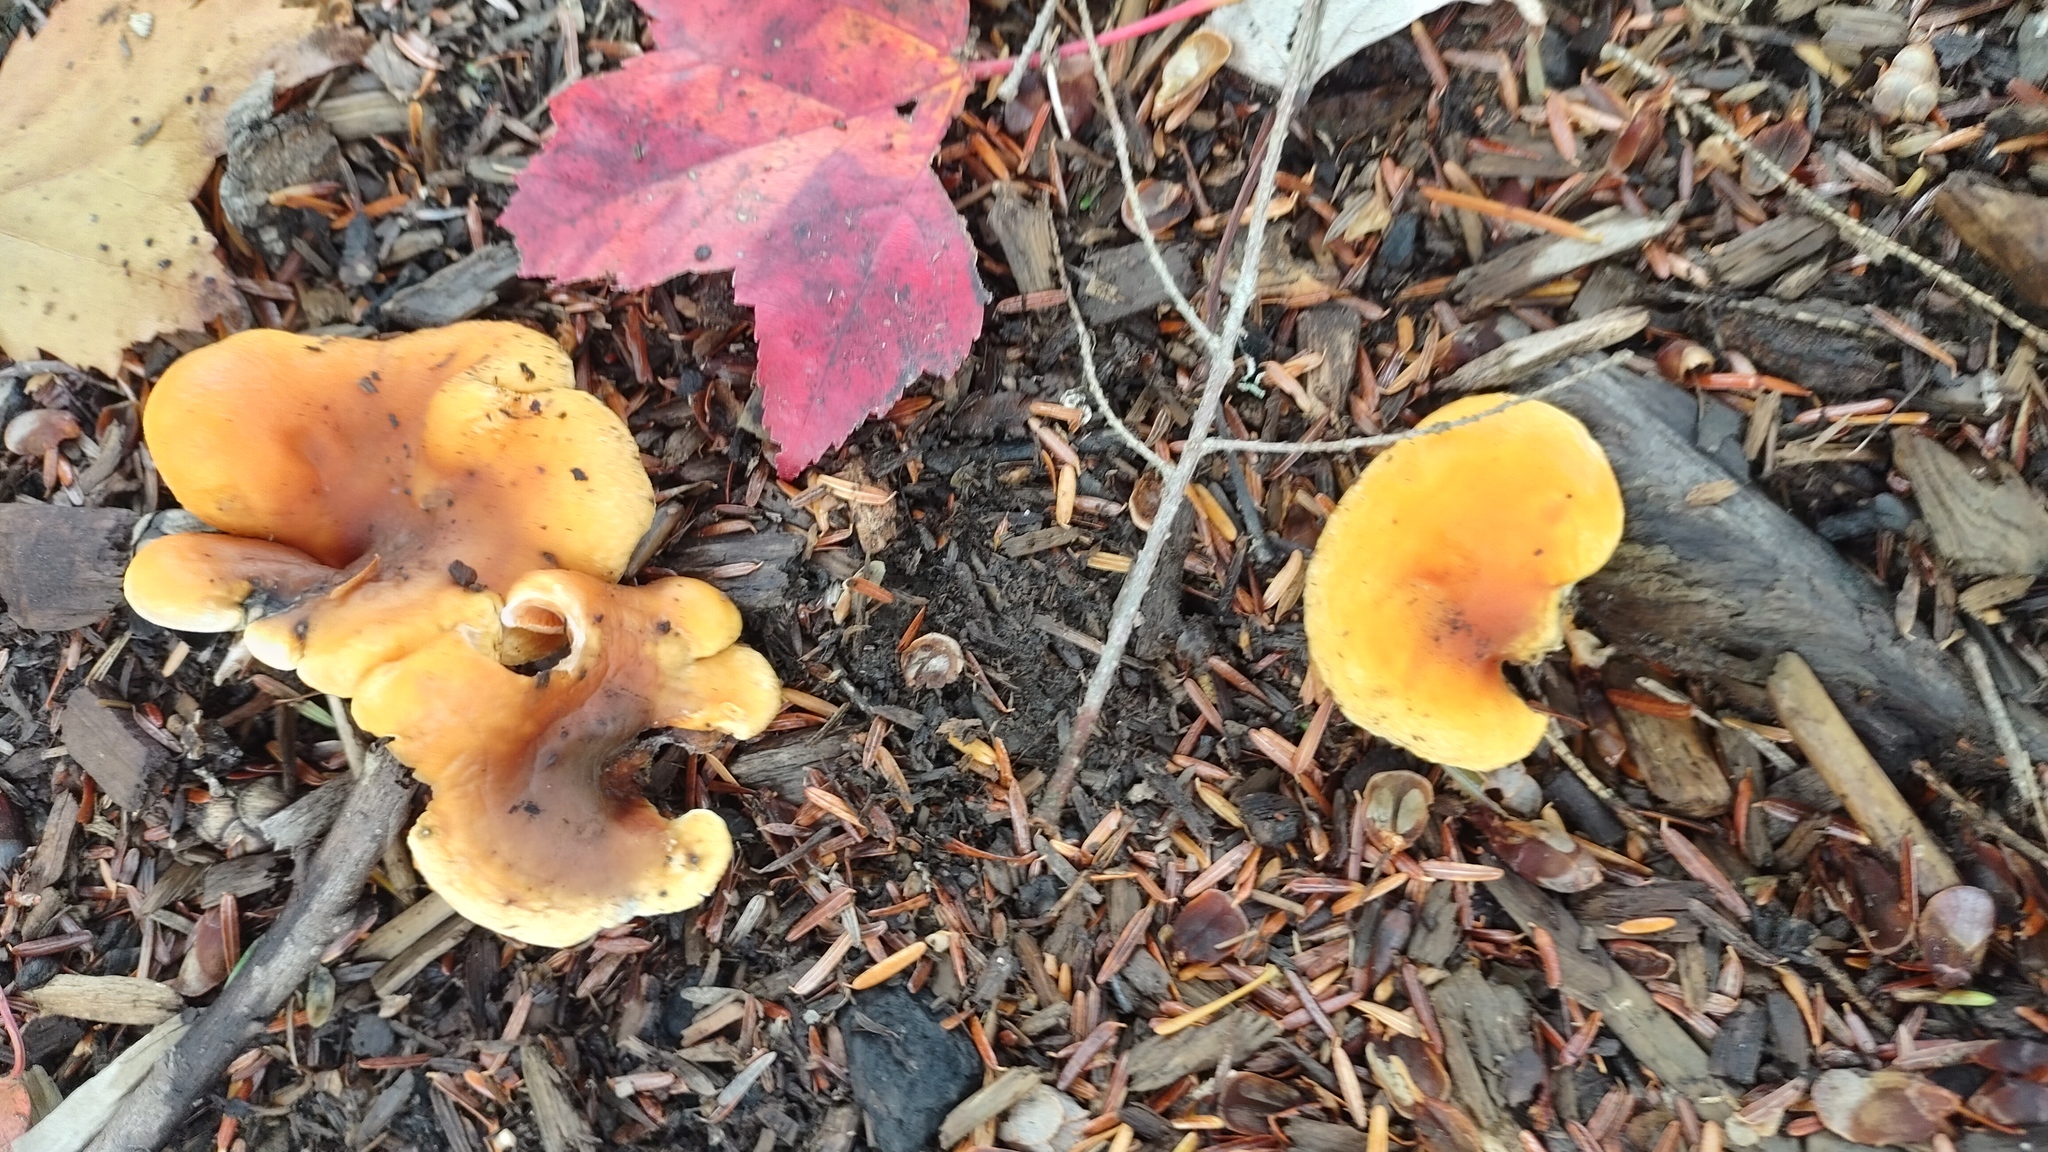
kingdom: Fungi
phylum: Basidiomycota
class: Agaricomycetes
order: Boletales
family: Hygrophoropsidaceae
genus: Hygrophoropsis
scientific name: Hygrophoropsis aurantiaca
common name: False chanterelle
